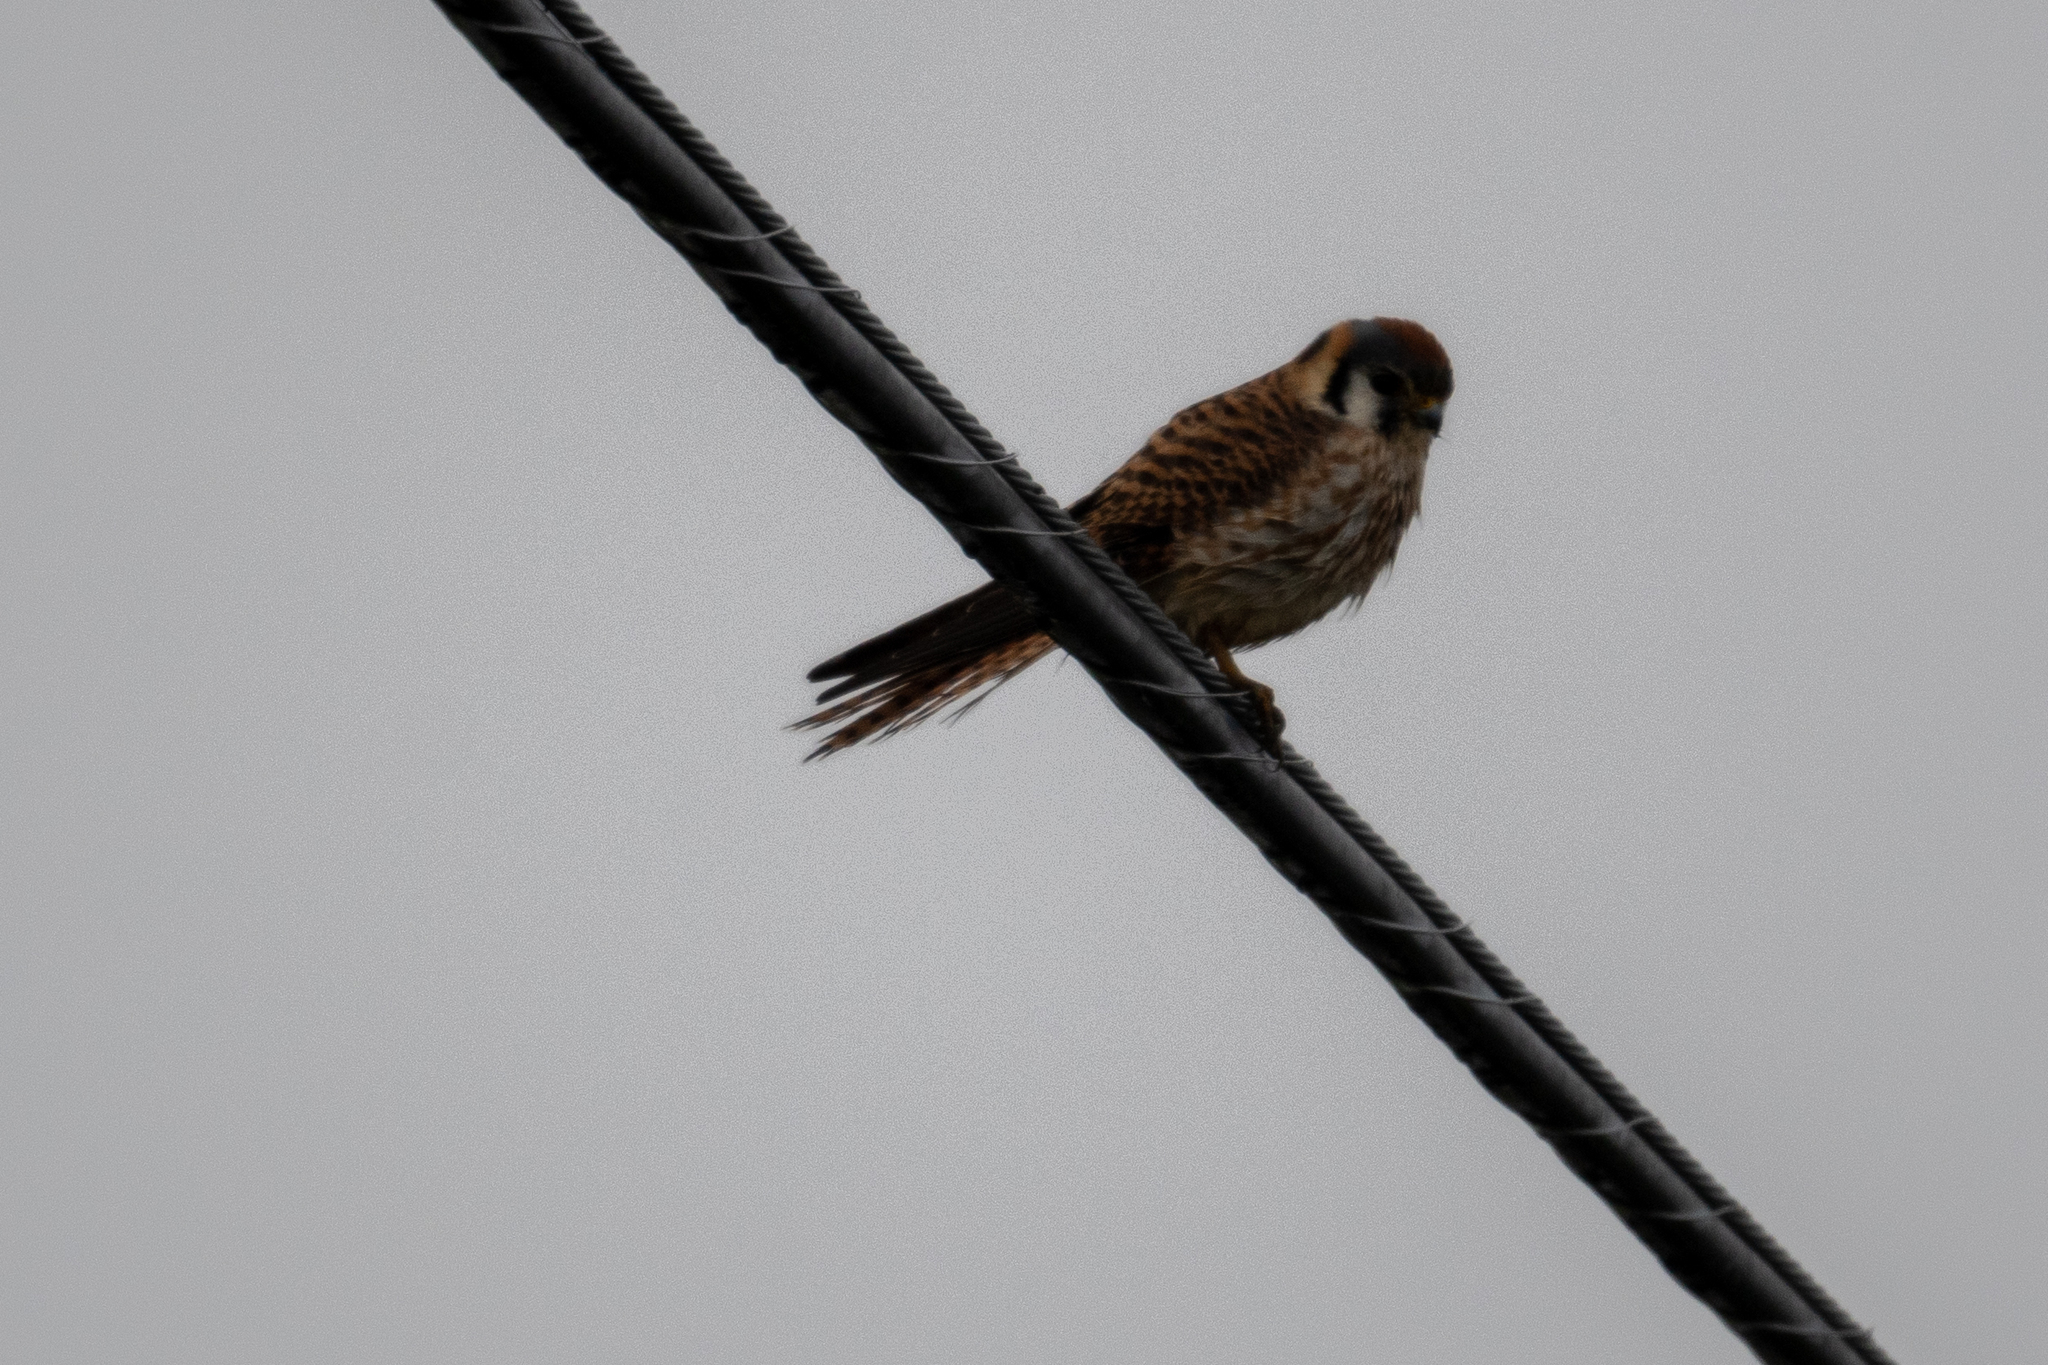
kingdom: Animalia
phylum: Chordata
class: Aves
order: Falconiformes
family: Falconidae
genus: Falco
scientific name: Falco sparverius
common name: American kestrel
